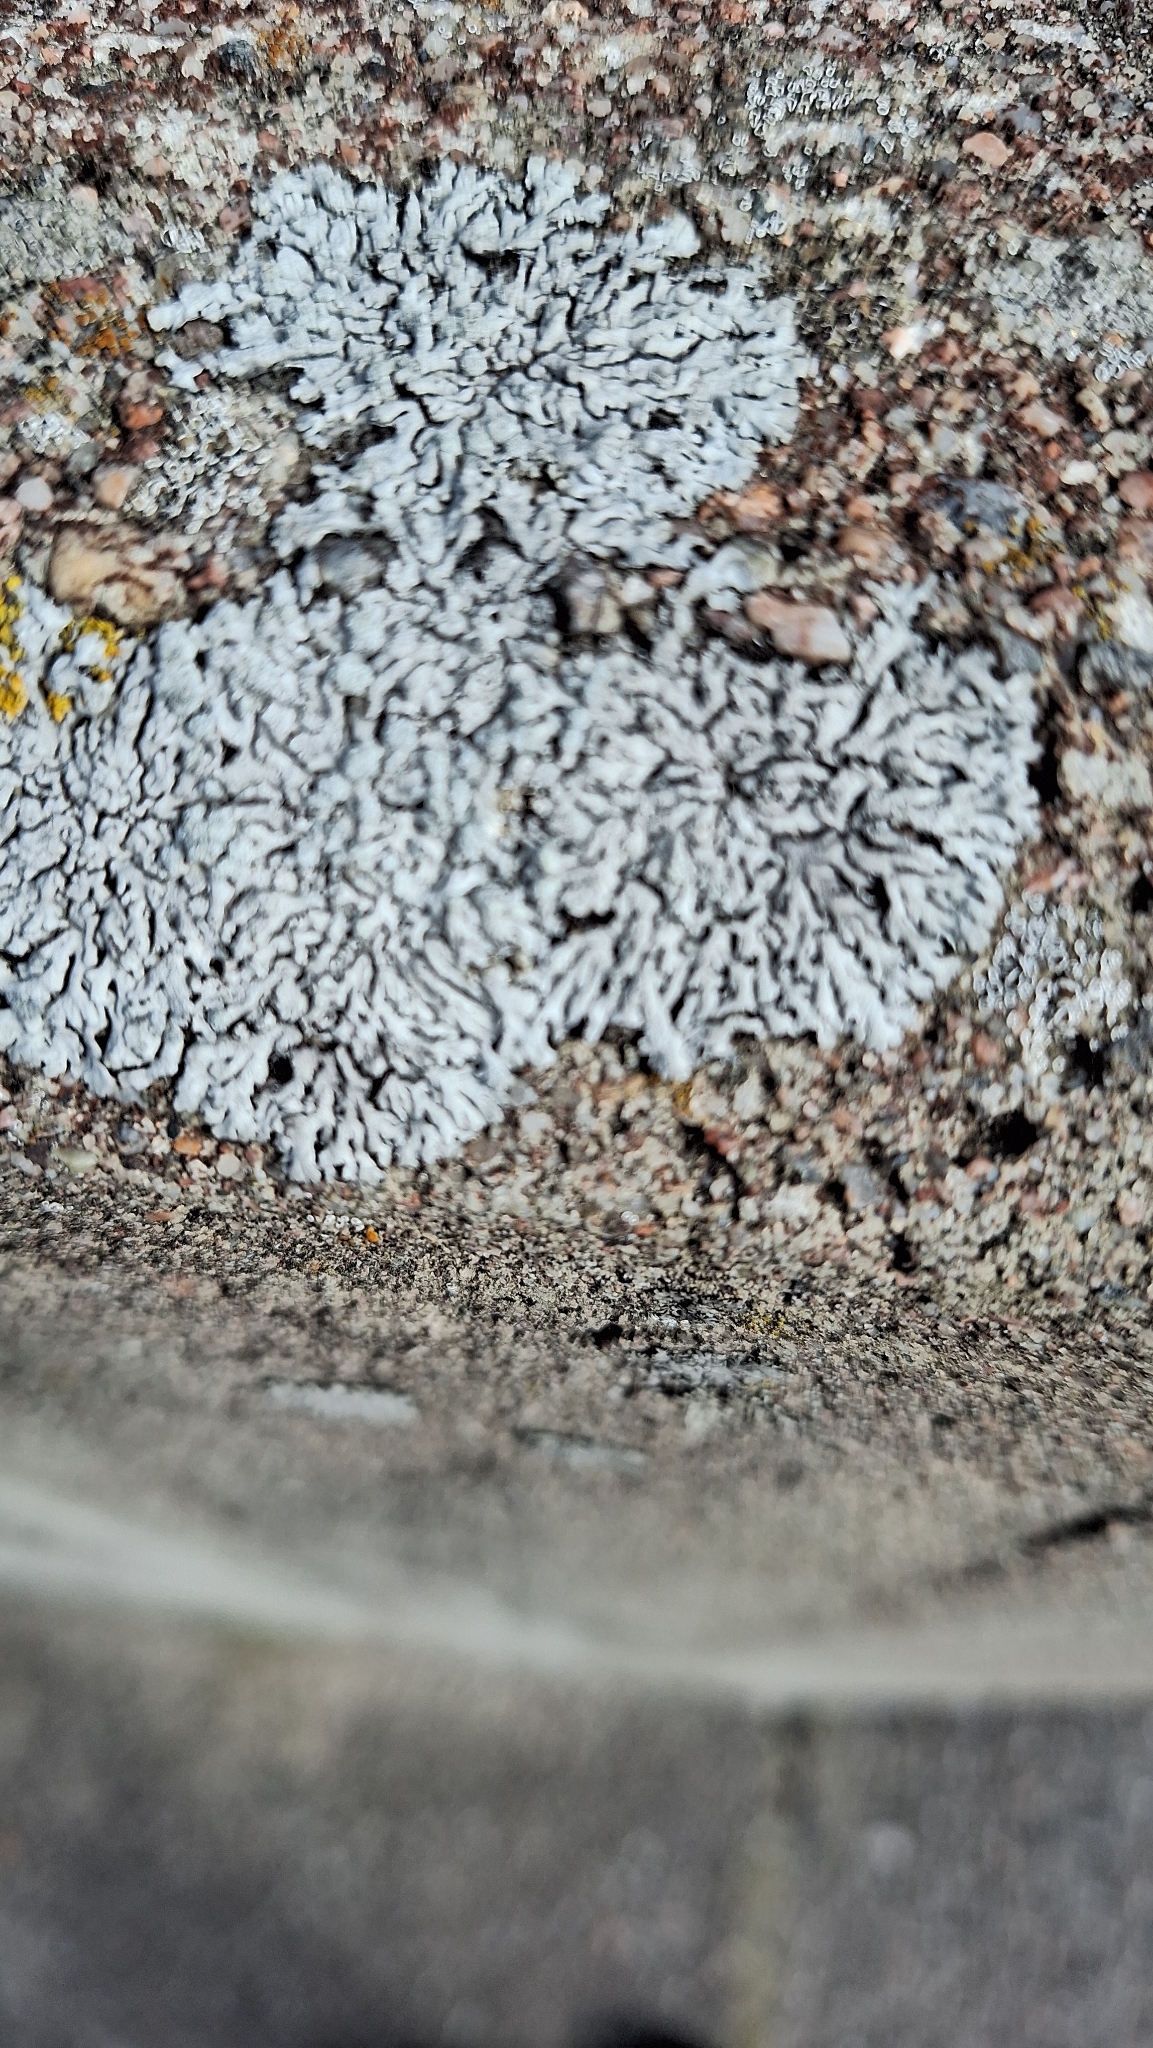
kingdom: Fungi
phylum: Ascomycota
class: Lecanoromycetes
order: Caliciales
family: Physciaceae
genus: Physcia
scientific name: Physcia caesia
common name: Blue-gray rosette lichen
